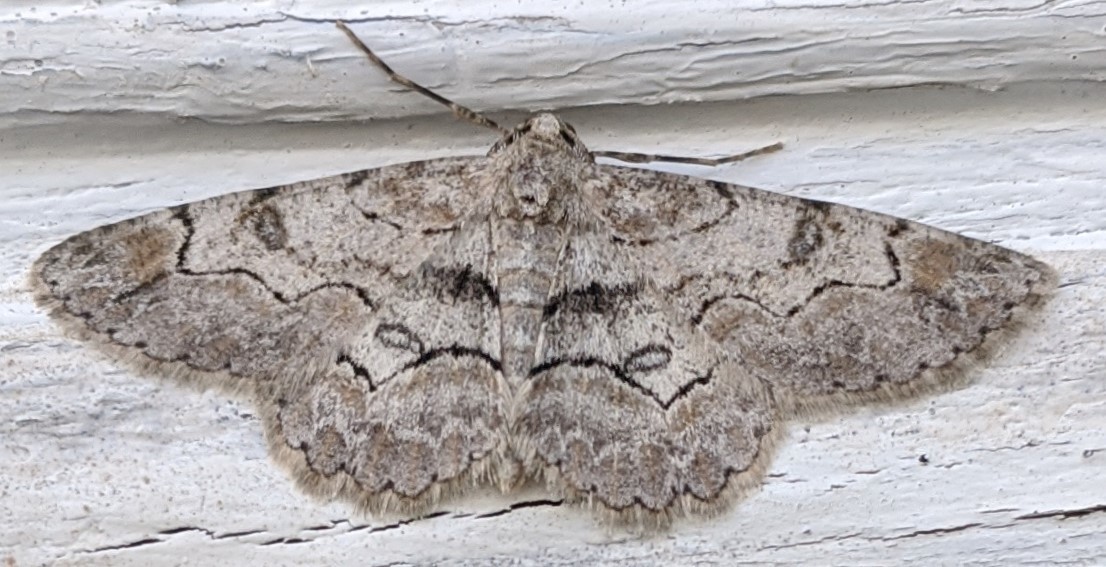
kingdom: Animalia
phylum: Arthropoda
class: Insecta
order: Lepidoptera
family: Geometridae
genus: Iridopsis
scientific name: Iridopsis larvaria
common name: Bent-line gray
